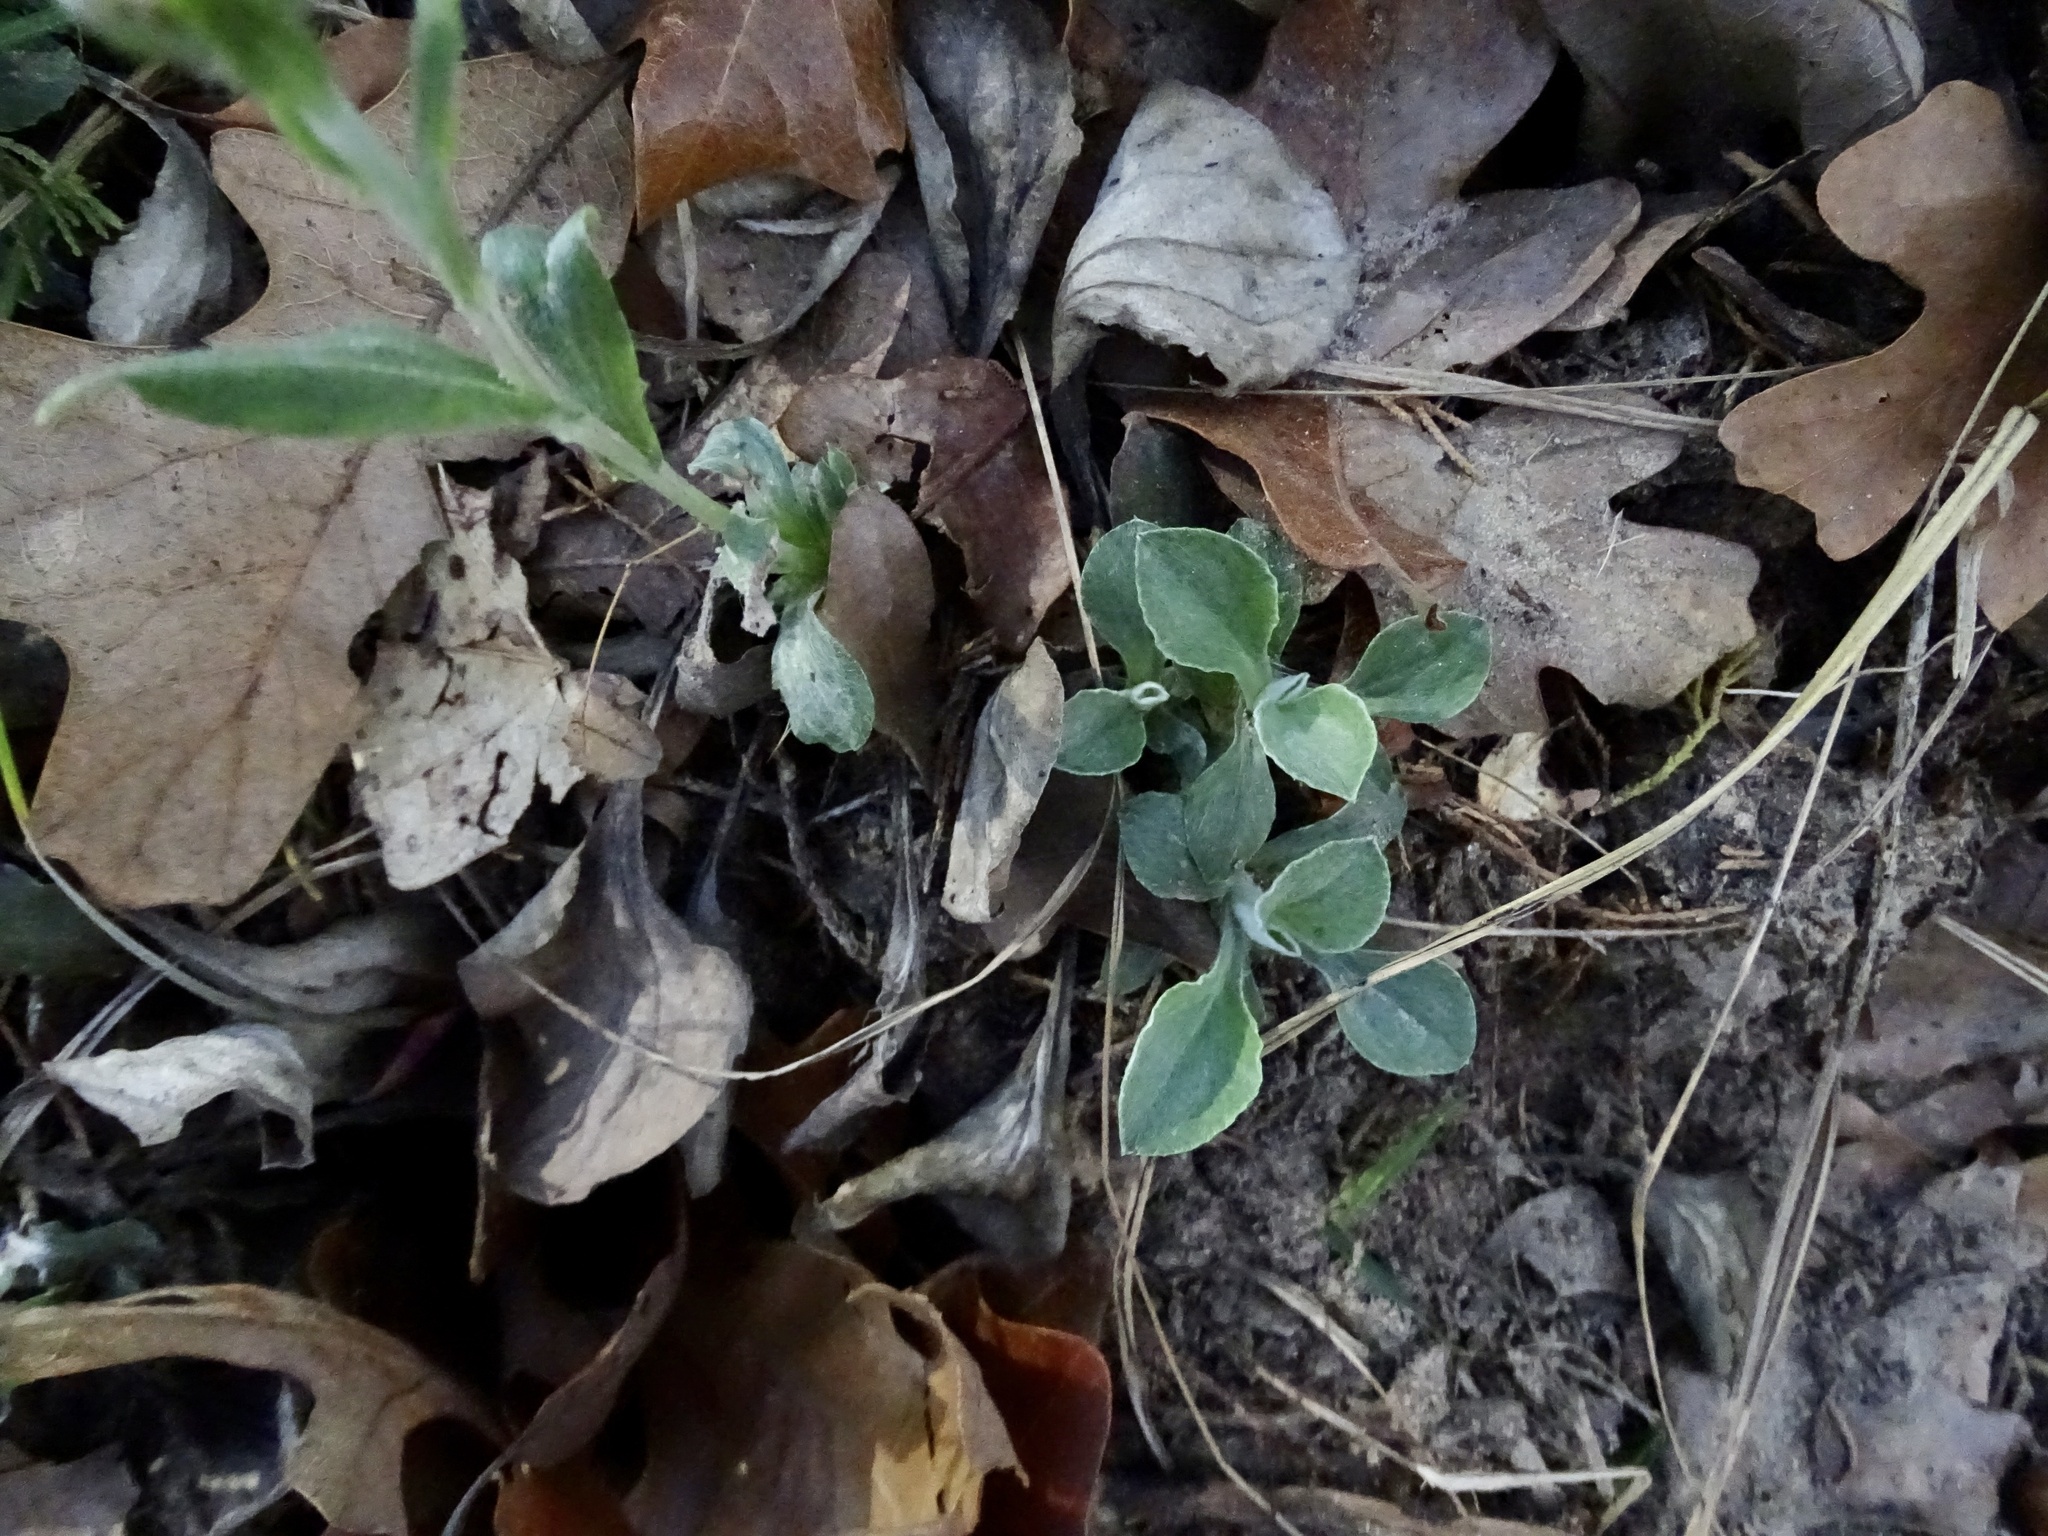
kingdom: Plantae
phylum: Tracheophyta
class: Magnoliopsida
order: Asterales
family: Asteraceae
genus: Antennaria
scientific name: Antennaria parlinii
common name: Parlin's pussytoes
